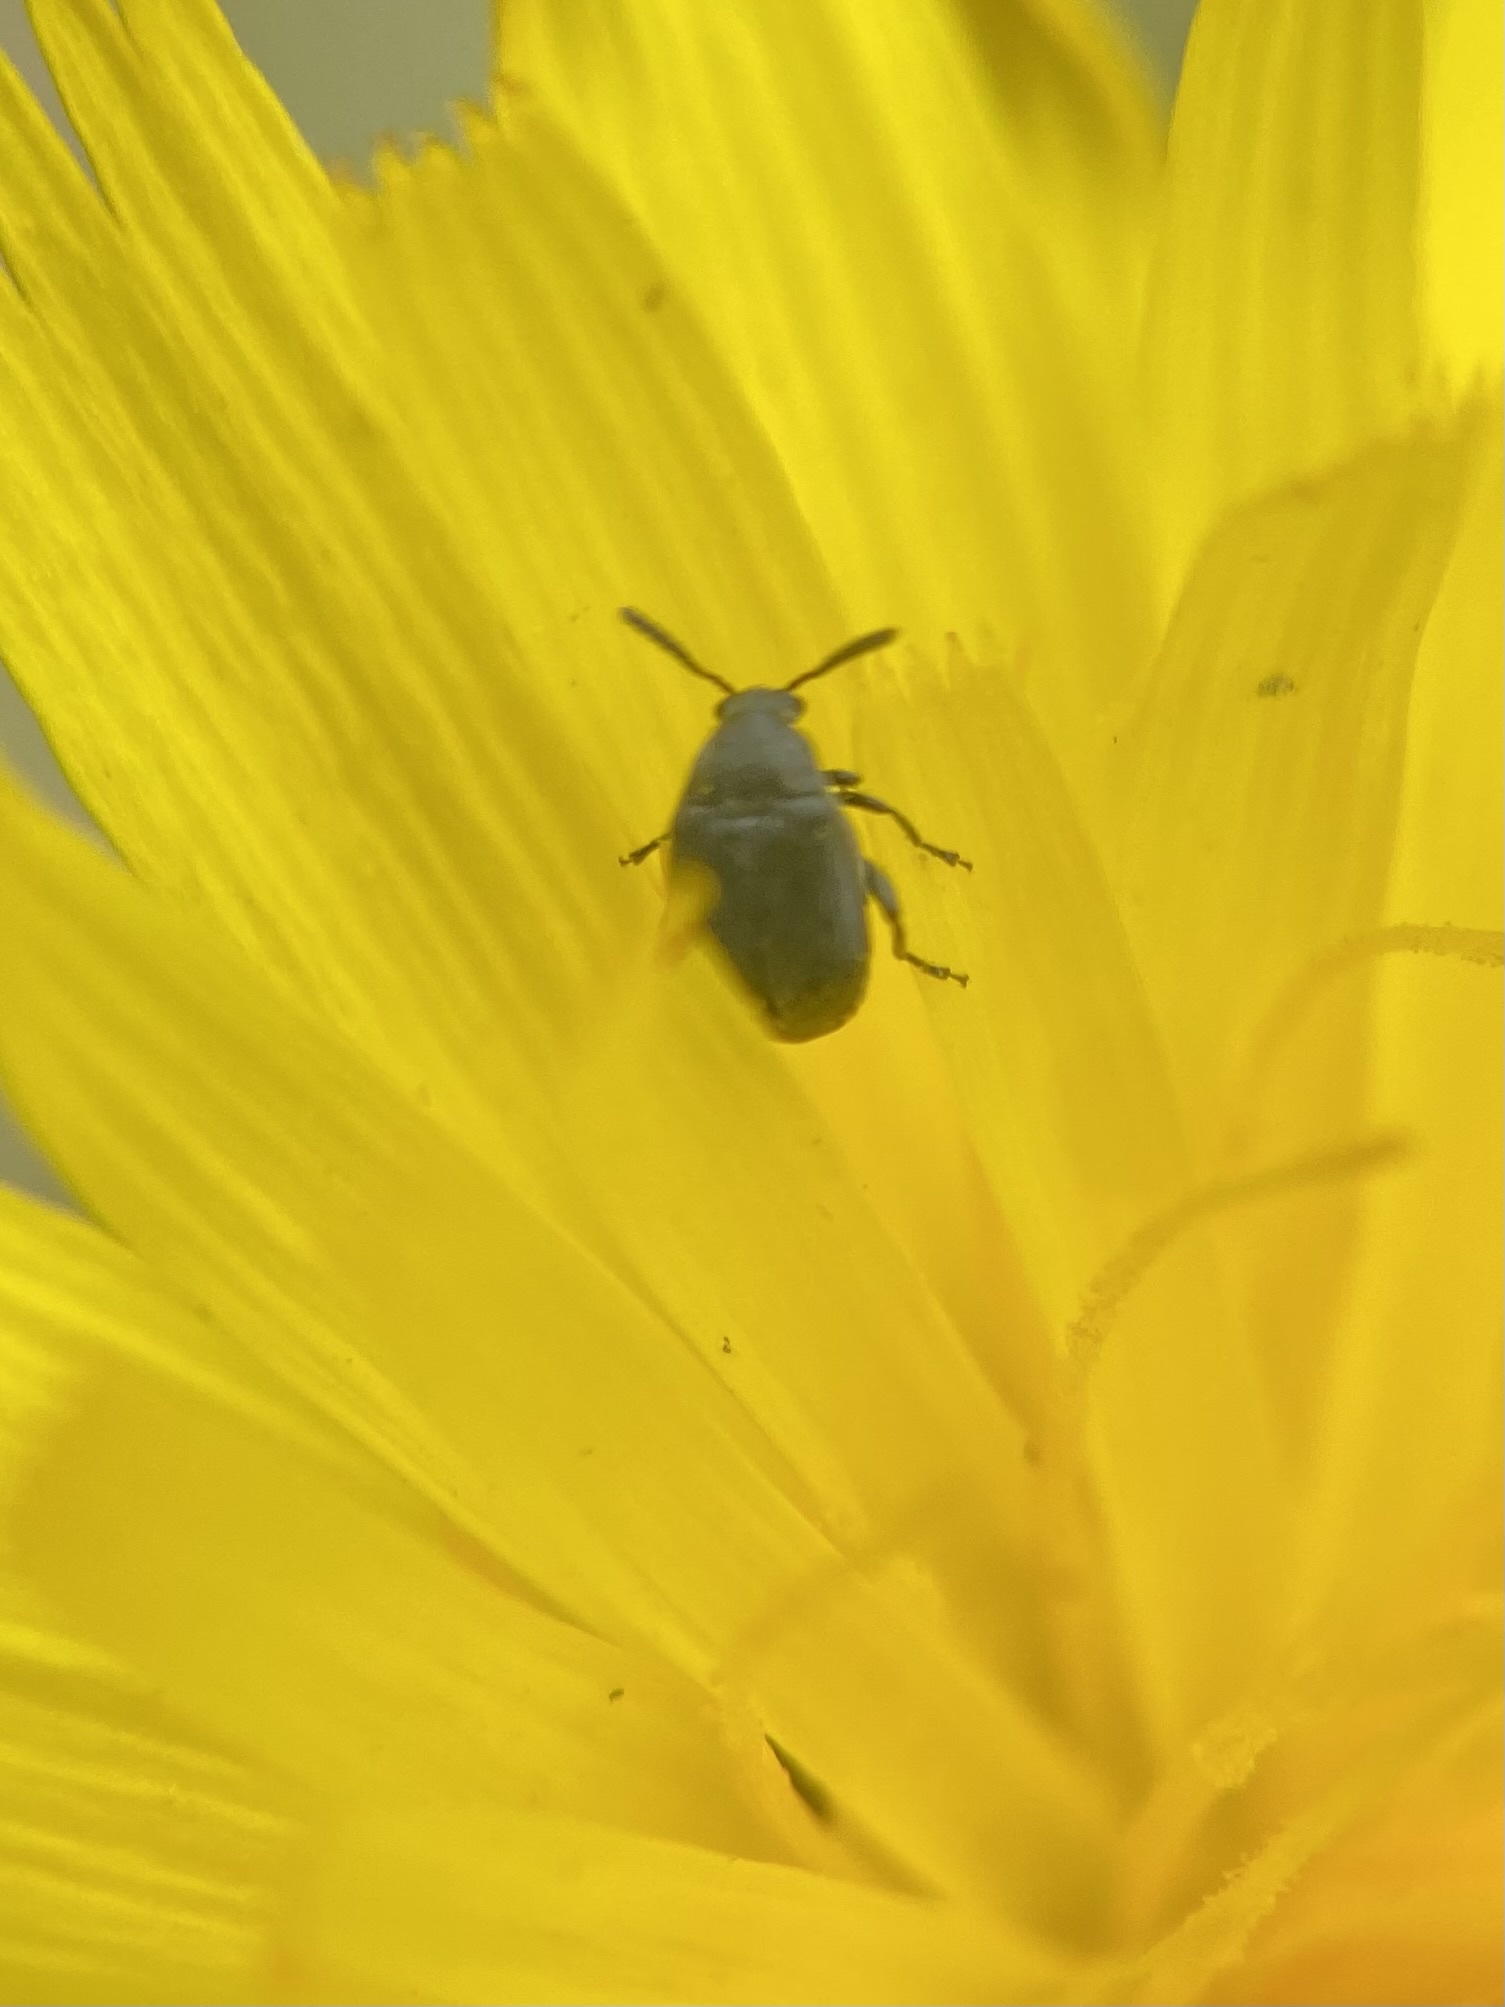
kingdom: Animalia
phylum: Arthropoda
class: Insecta
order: Coleoptera
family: Chrysomelidae
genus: Bruchidius
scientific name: Bruchidius villosus
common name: Scotch broom bruchid
